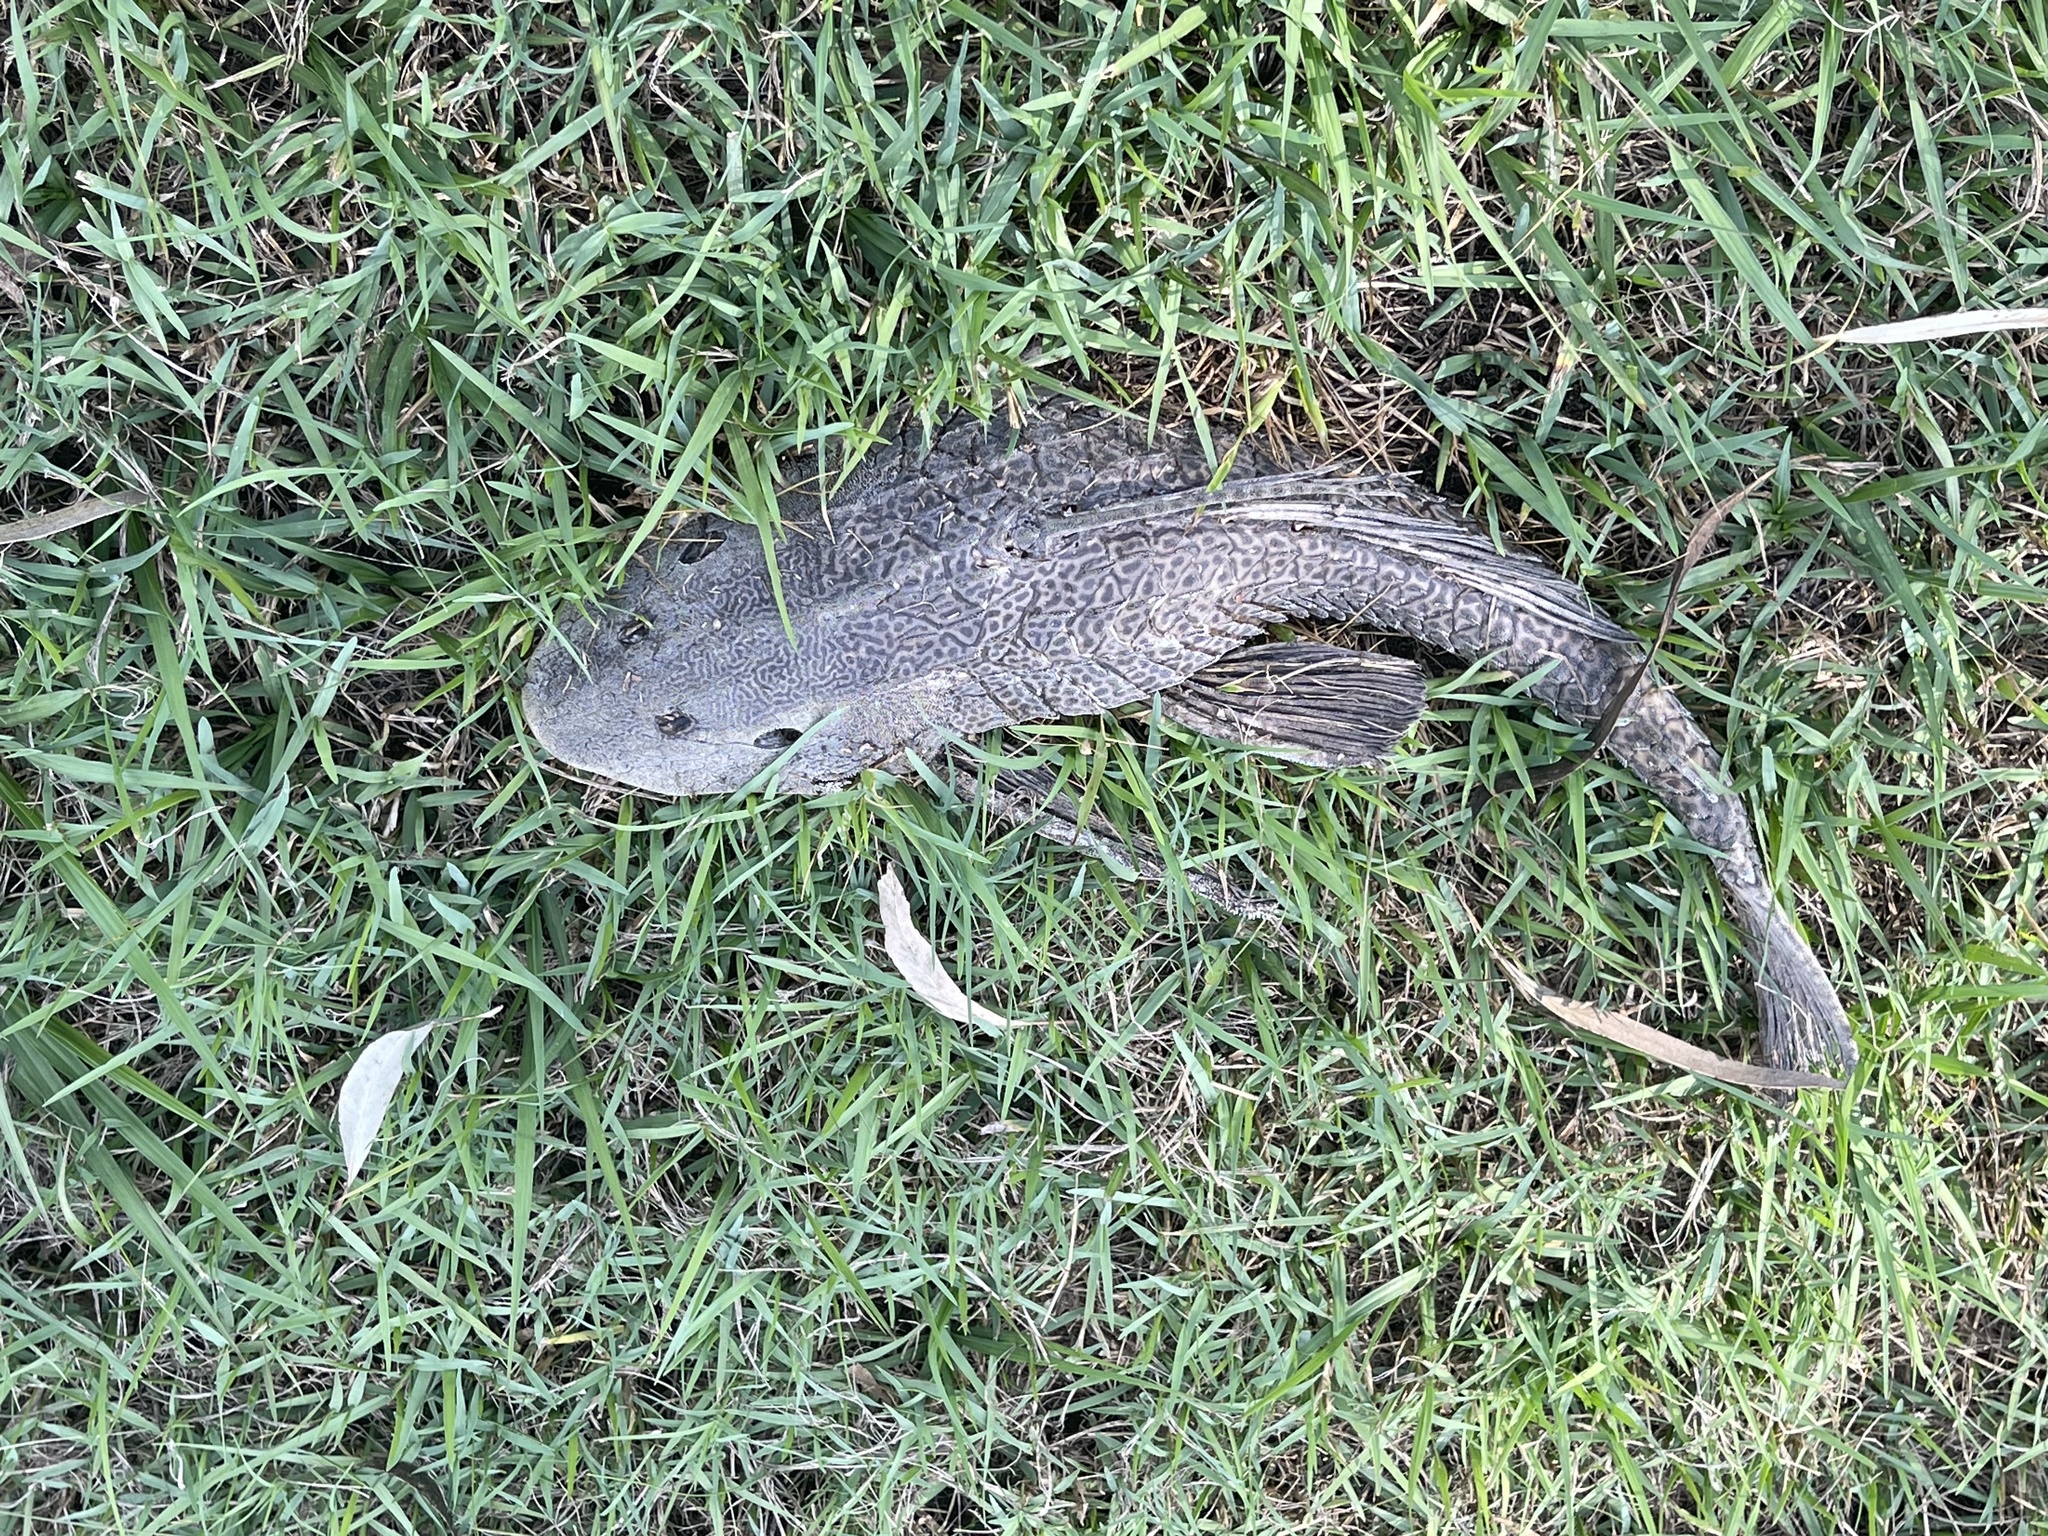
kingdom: Animalia
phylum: Chordata
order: Siluriformes
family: Loricariidae
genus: Pterygoplichthys
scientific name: Pterygoplichthys
